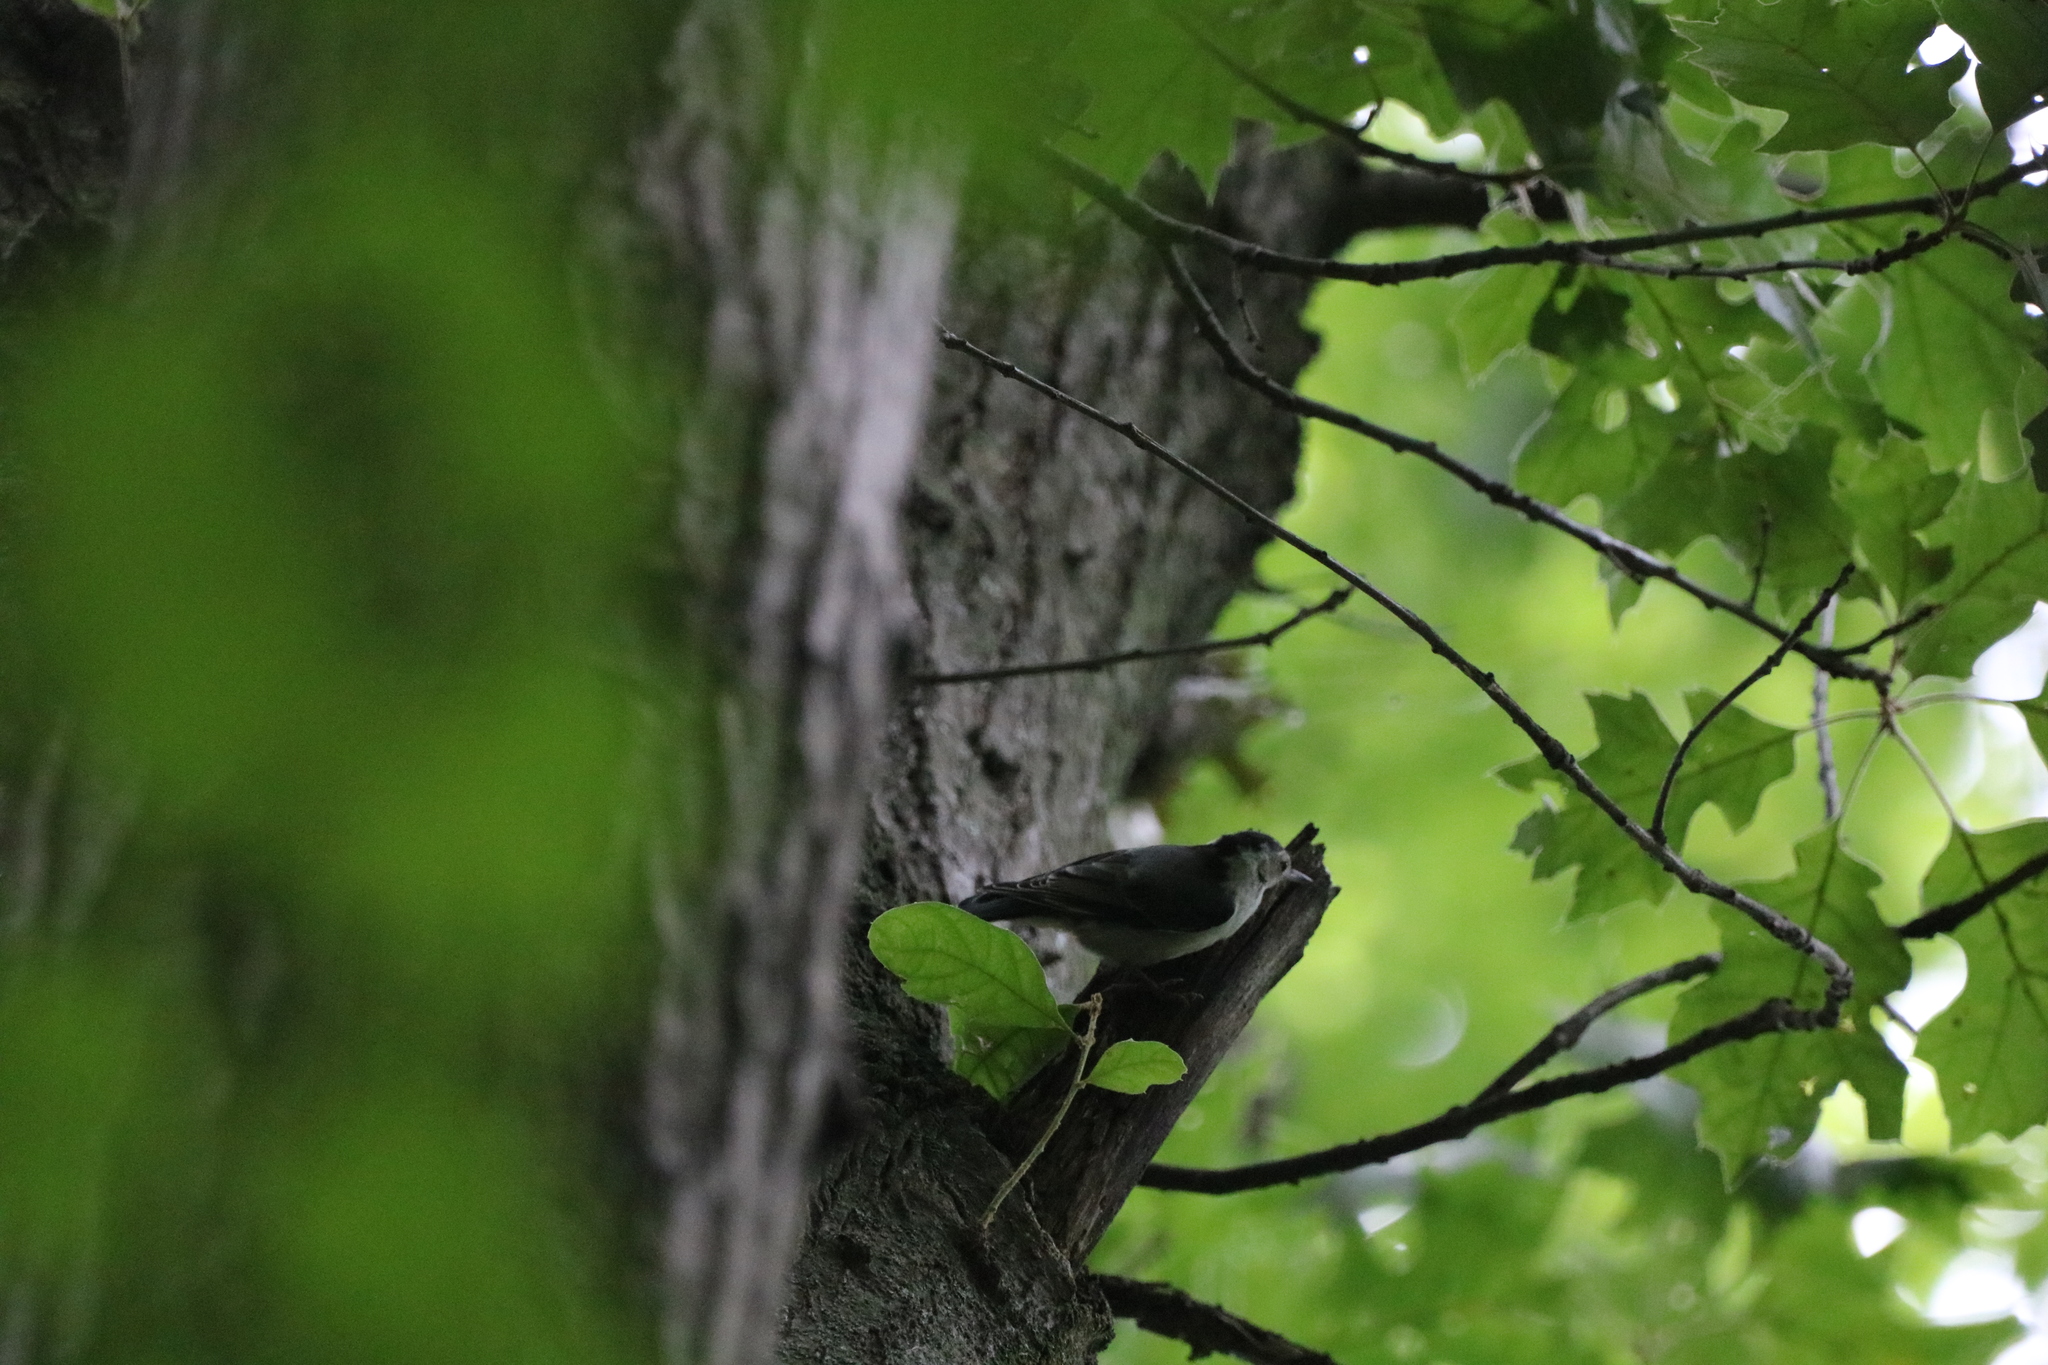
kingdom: Animalia
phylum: Chordata
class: Aves
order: Passeriformes
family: Sittidae
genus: Sitta
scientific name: Sitta carolinensis
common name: White-breasted nuthatch
